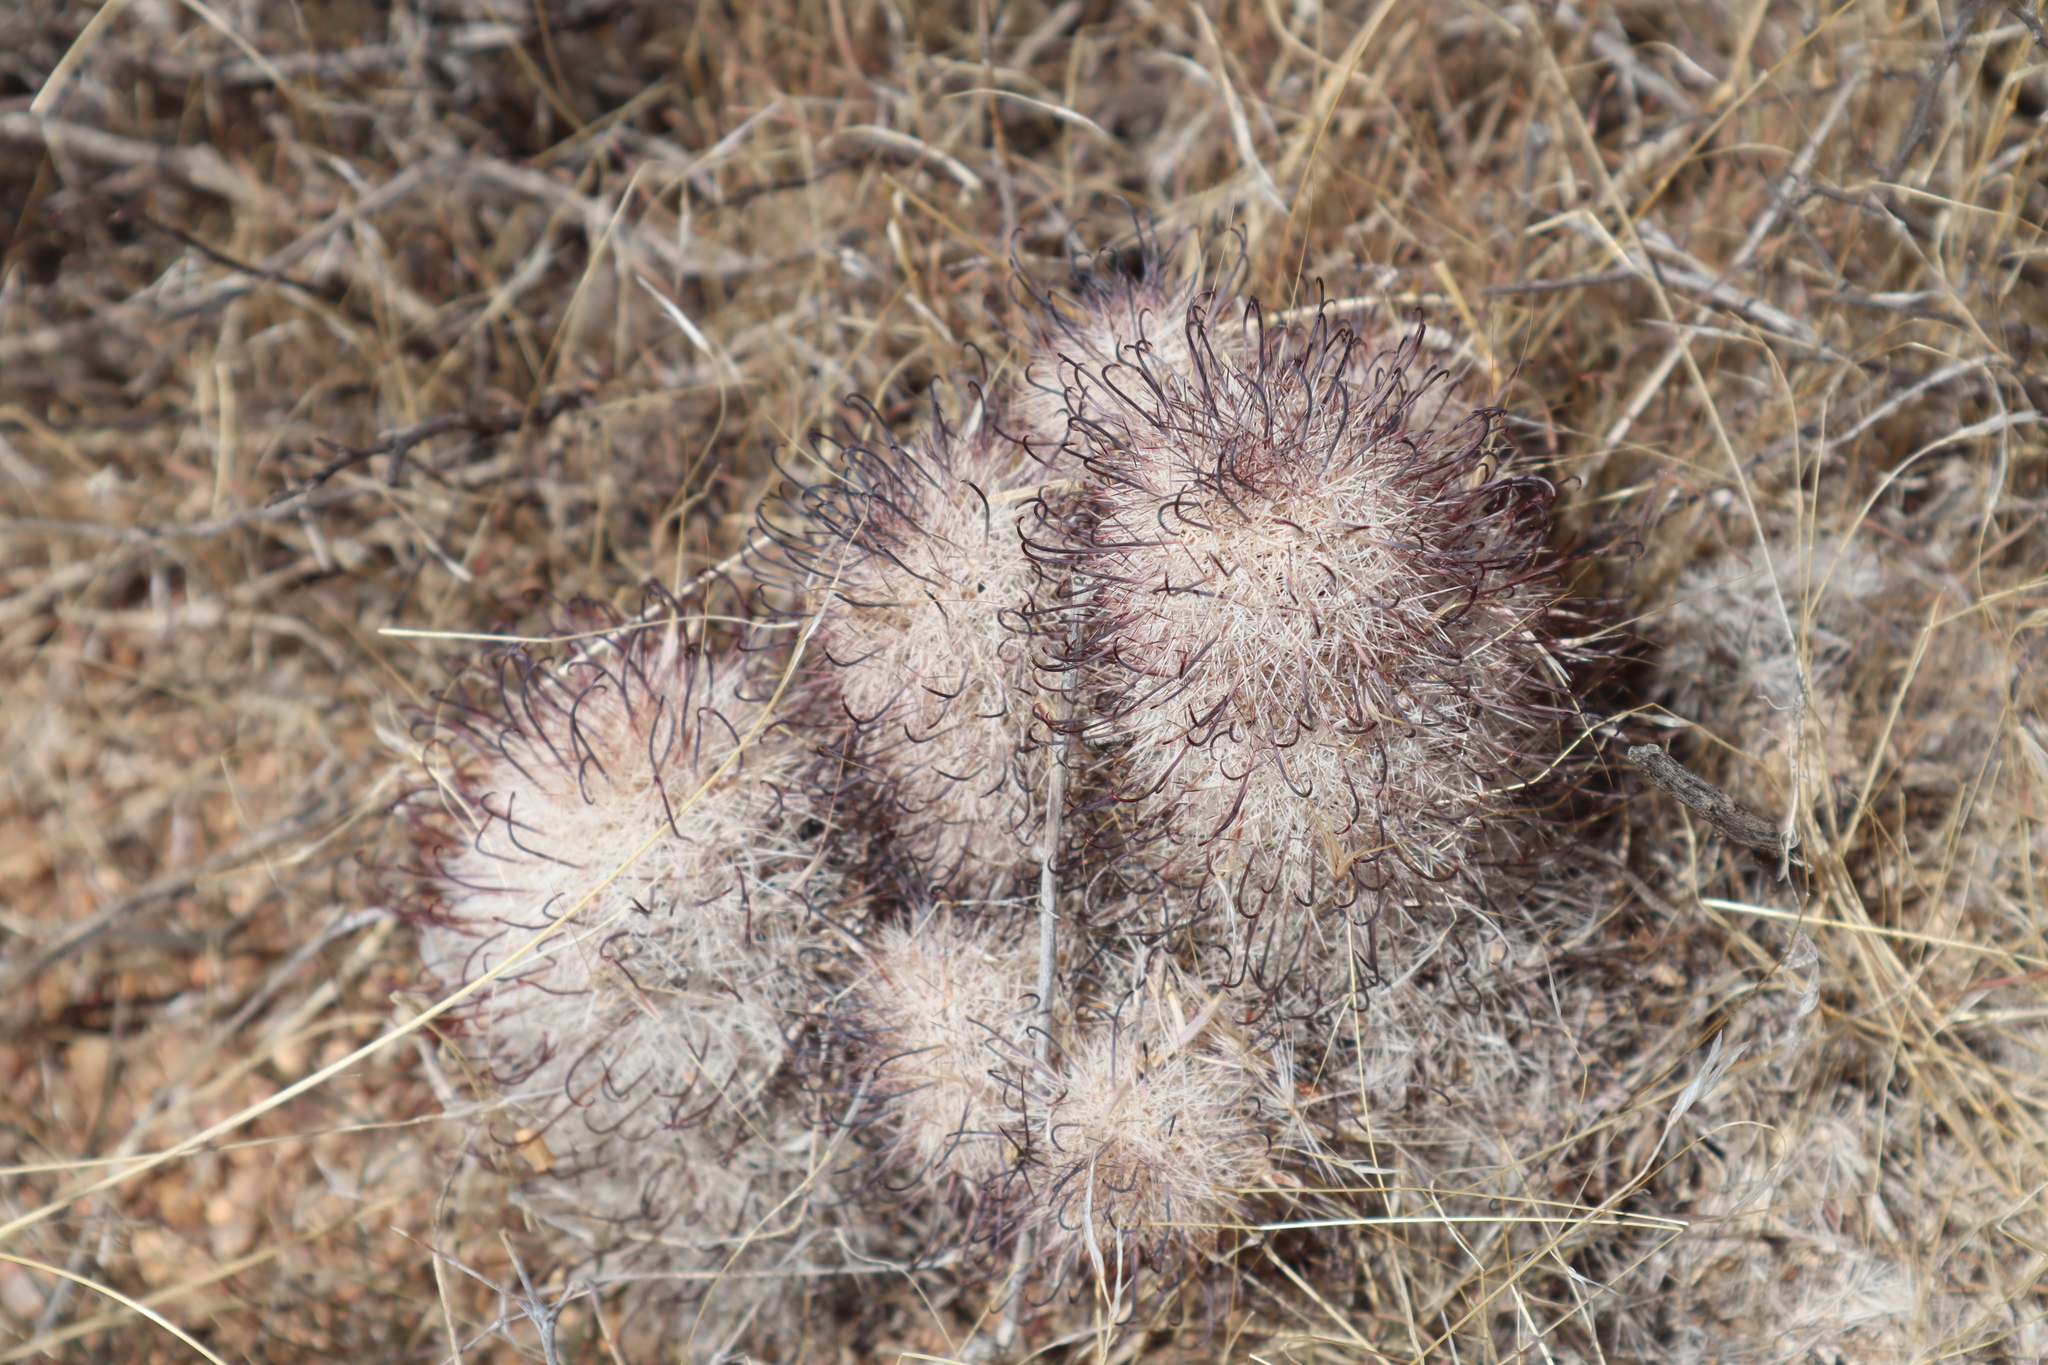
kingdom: Plantae
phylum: Tracheophyta
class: Magnoliopsida
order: Caryophyllales
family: Cactaceae
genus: Cochemiea
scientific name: Cochemiea grahamii
